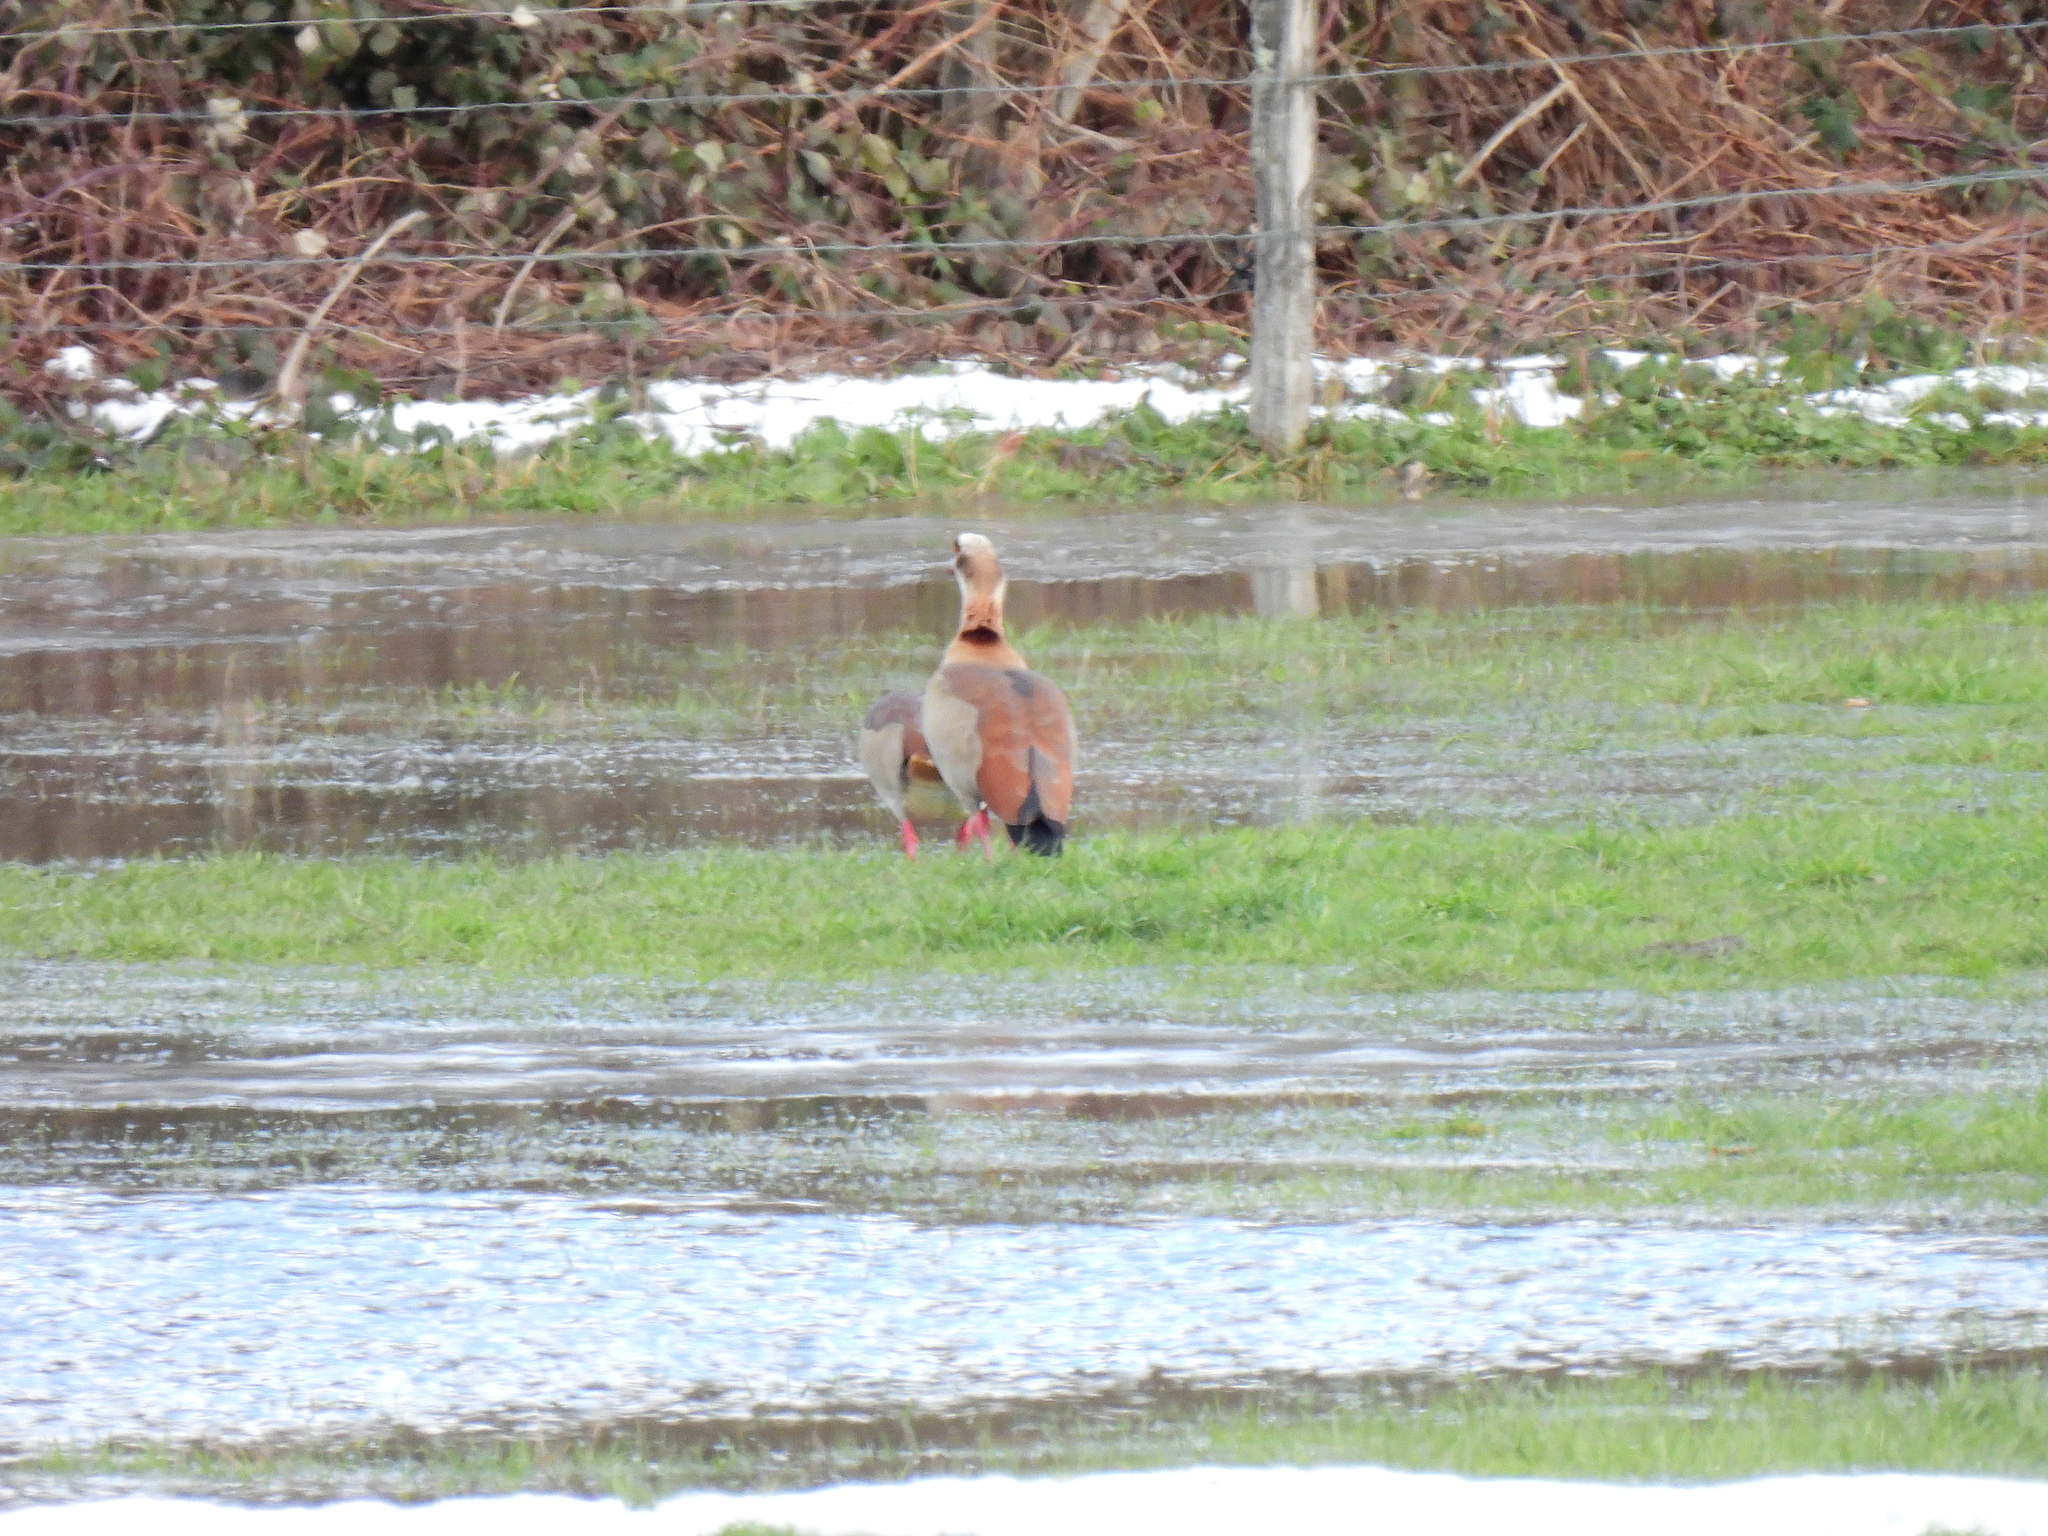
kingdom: Animalia
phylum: Chordata
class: Aves
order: Anseriformes
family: Anatidae
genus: Alopochen
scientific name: Alopochen aegyptiaca
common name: Egyptian goose
